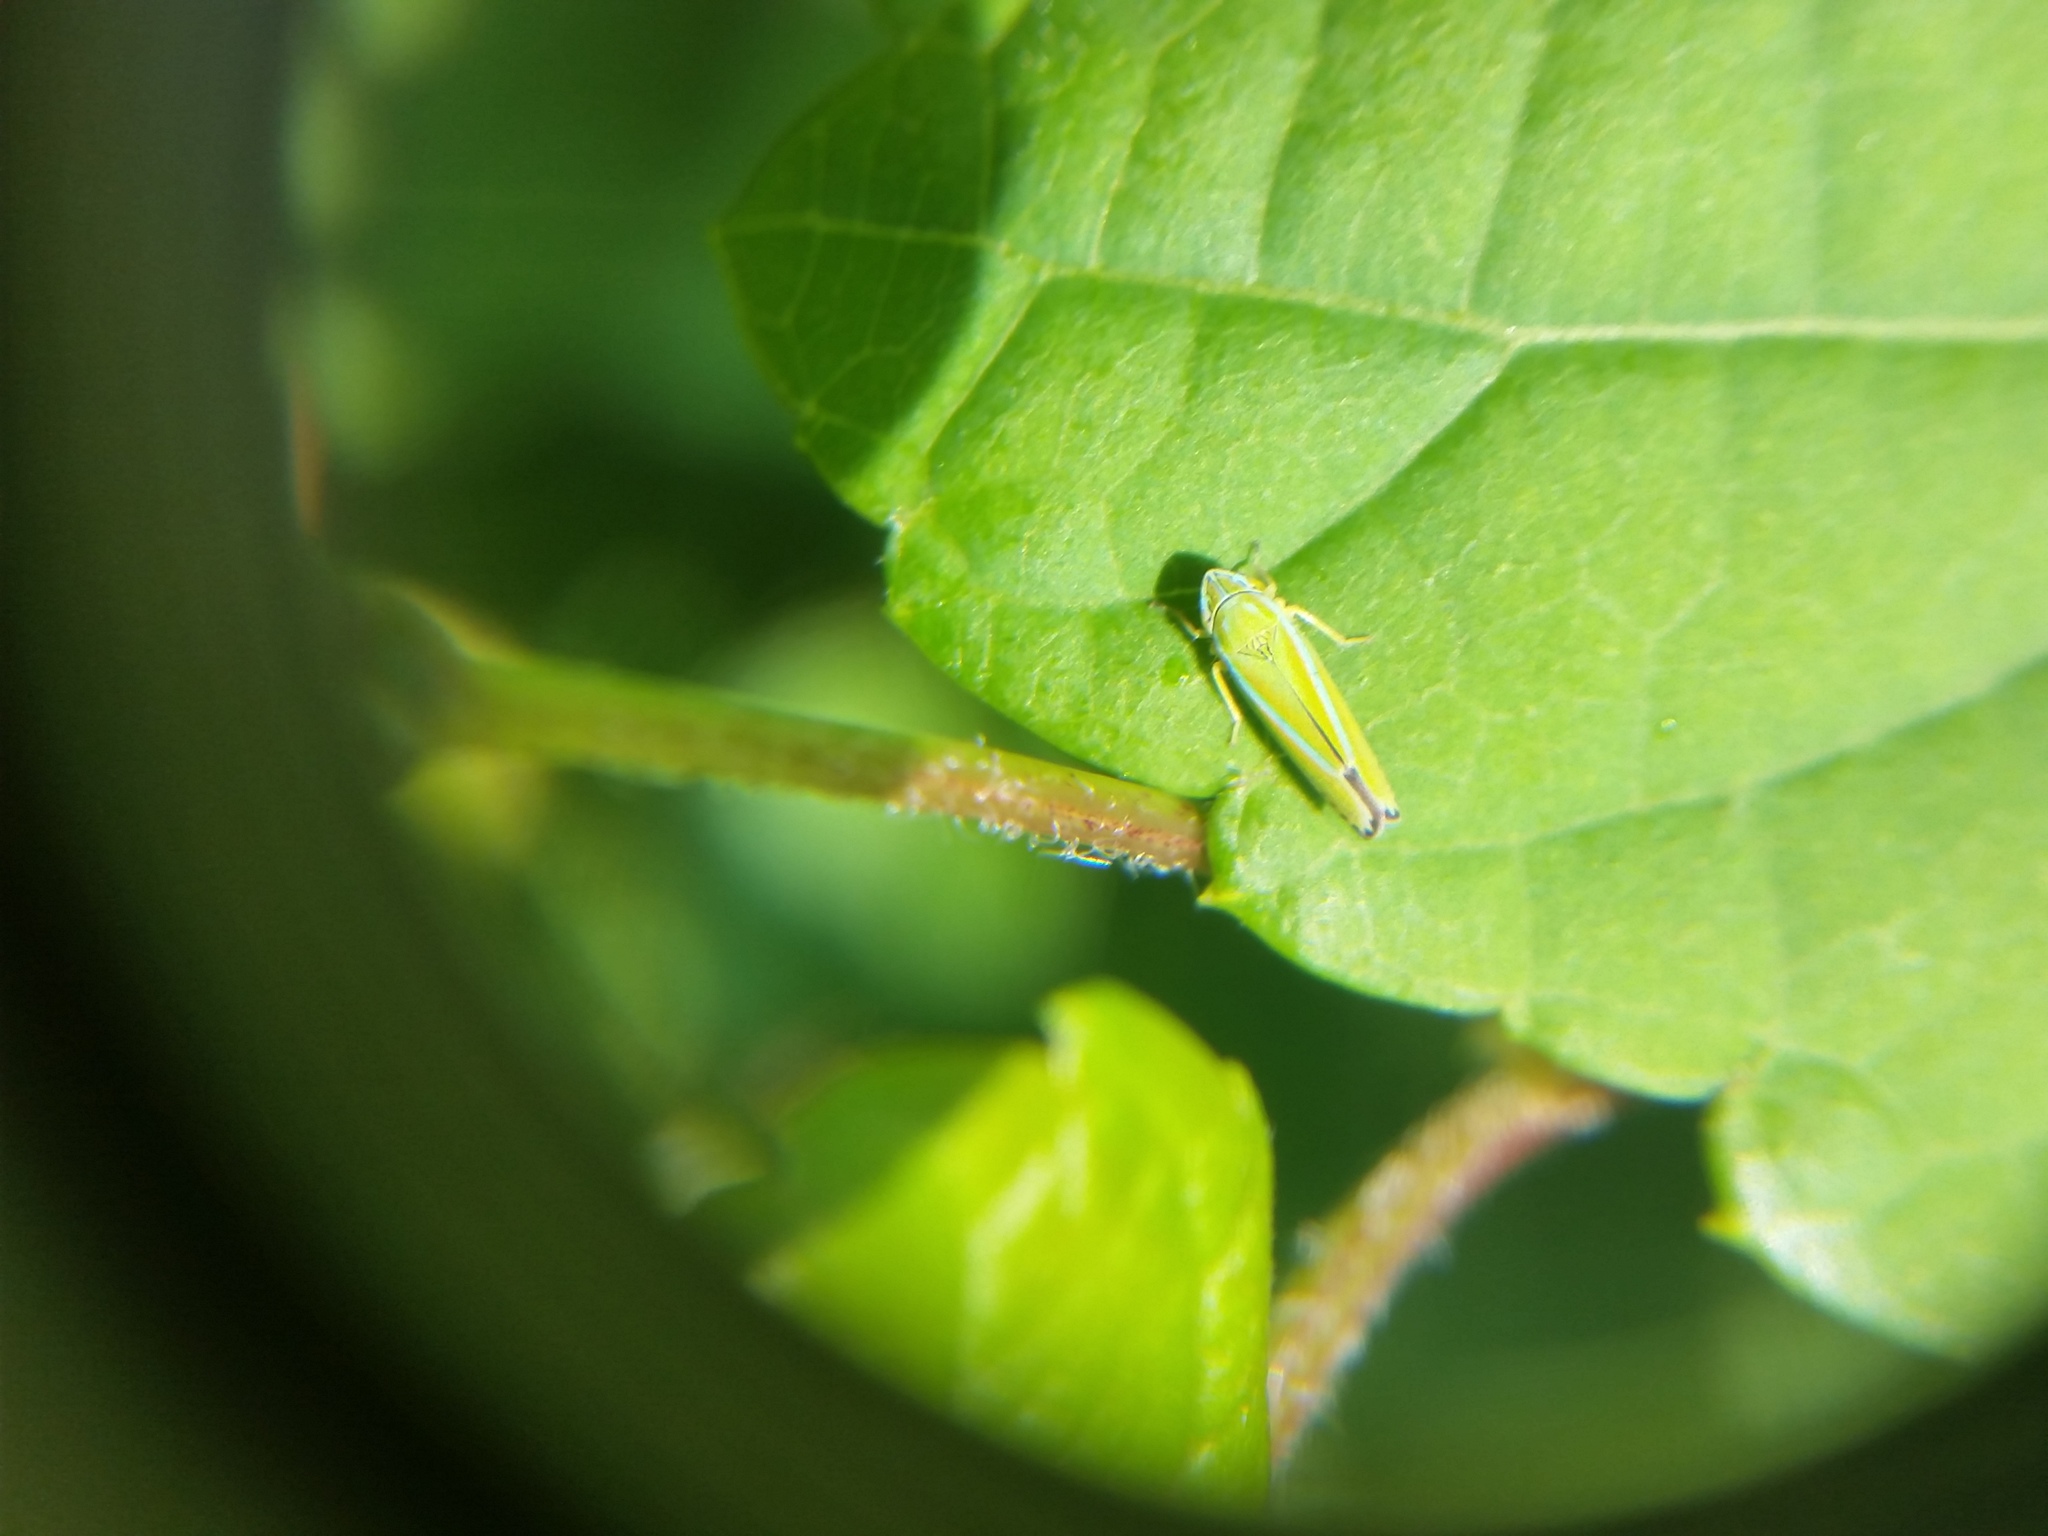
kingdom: Animalia
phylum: Arthropoda
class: Insecta
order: Hemiptera
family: Cicadellidae
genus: Graphocephala
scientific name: Graphocephala versuta
